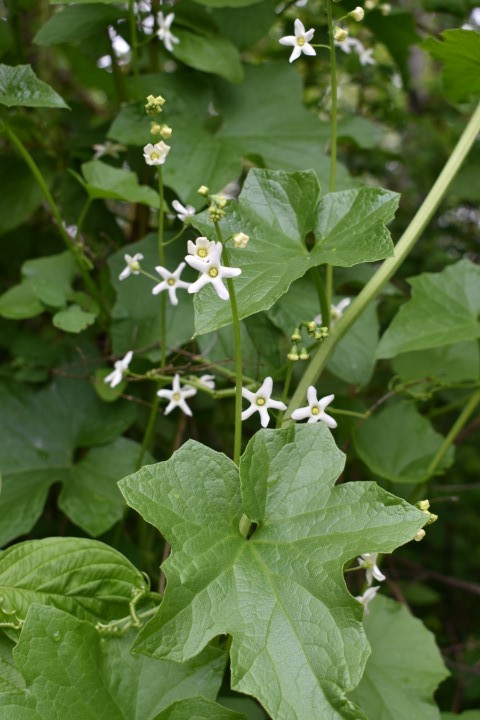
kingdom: Plantae
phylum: Tracheophyta
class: Magnoliopsida
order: Cucurbitales
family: Cucurbitaceae
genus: Marah
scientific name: Marah oregana
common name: Coastal manroot
